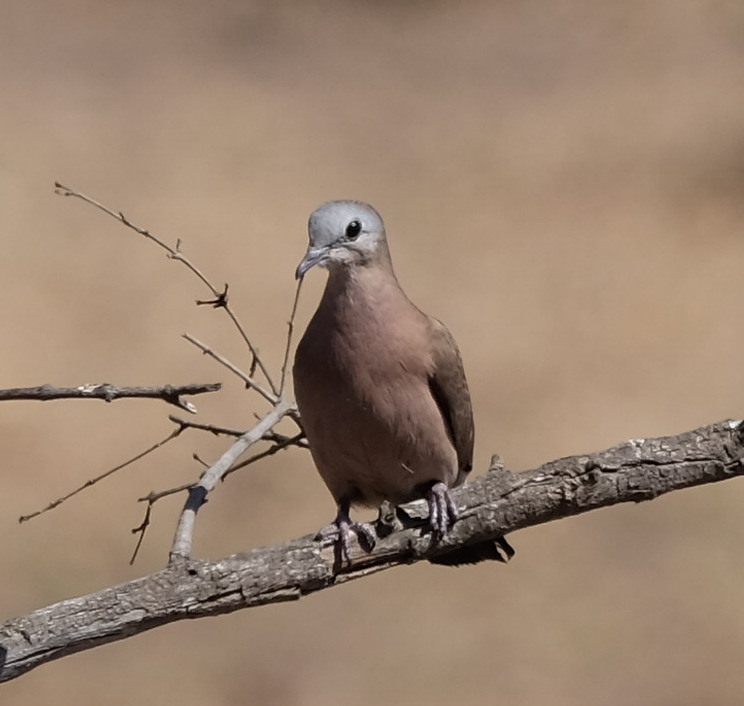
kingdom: Animalia
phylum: Chordata
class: Aves
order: Columbiformes
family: Columbidae
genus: Turtur
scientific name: Turtur chalcospilos
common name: Emerald-spotted wood dove
